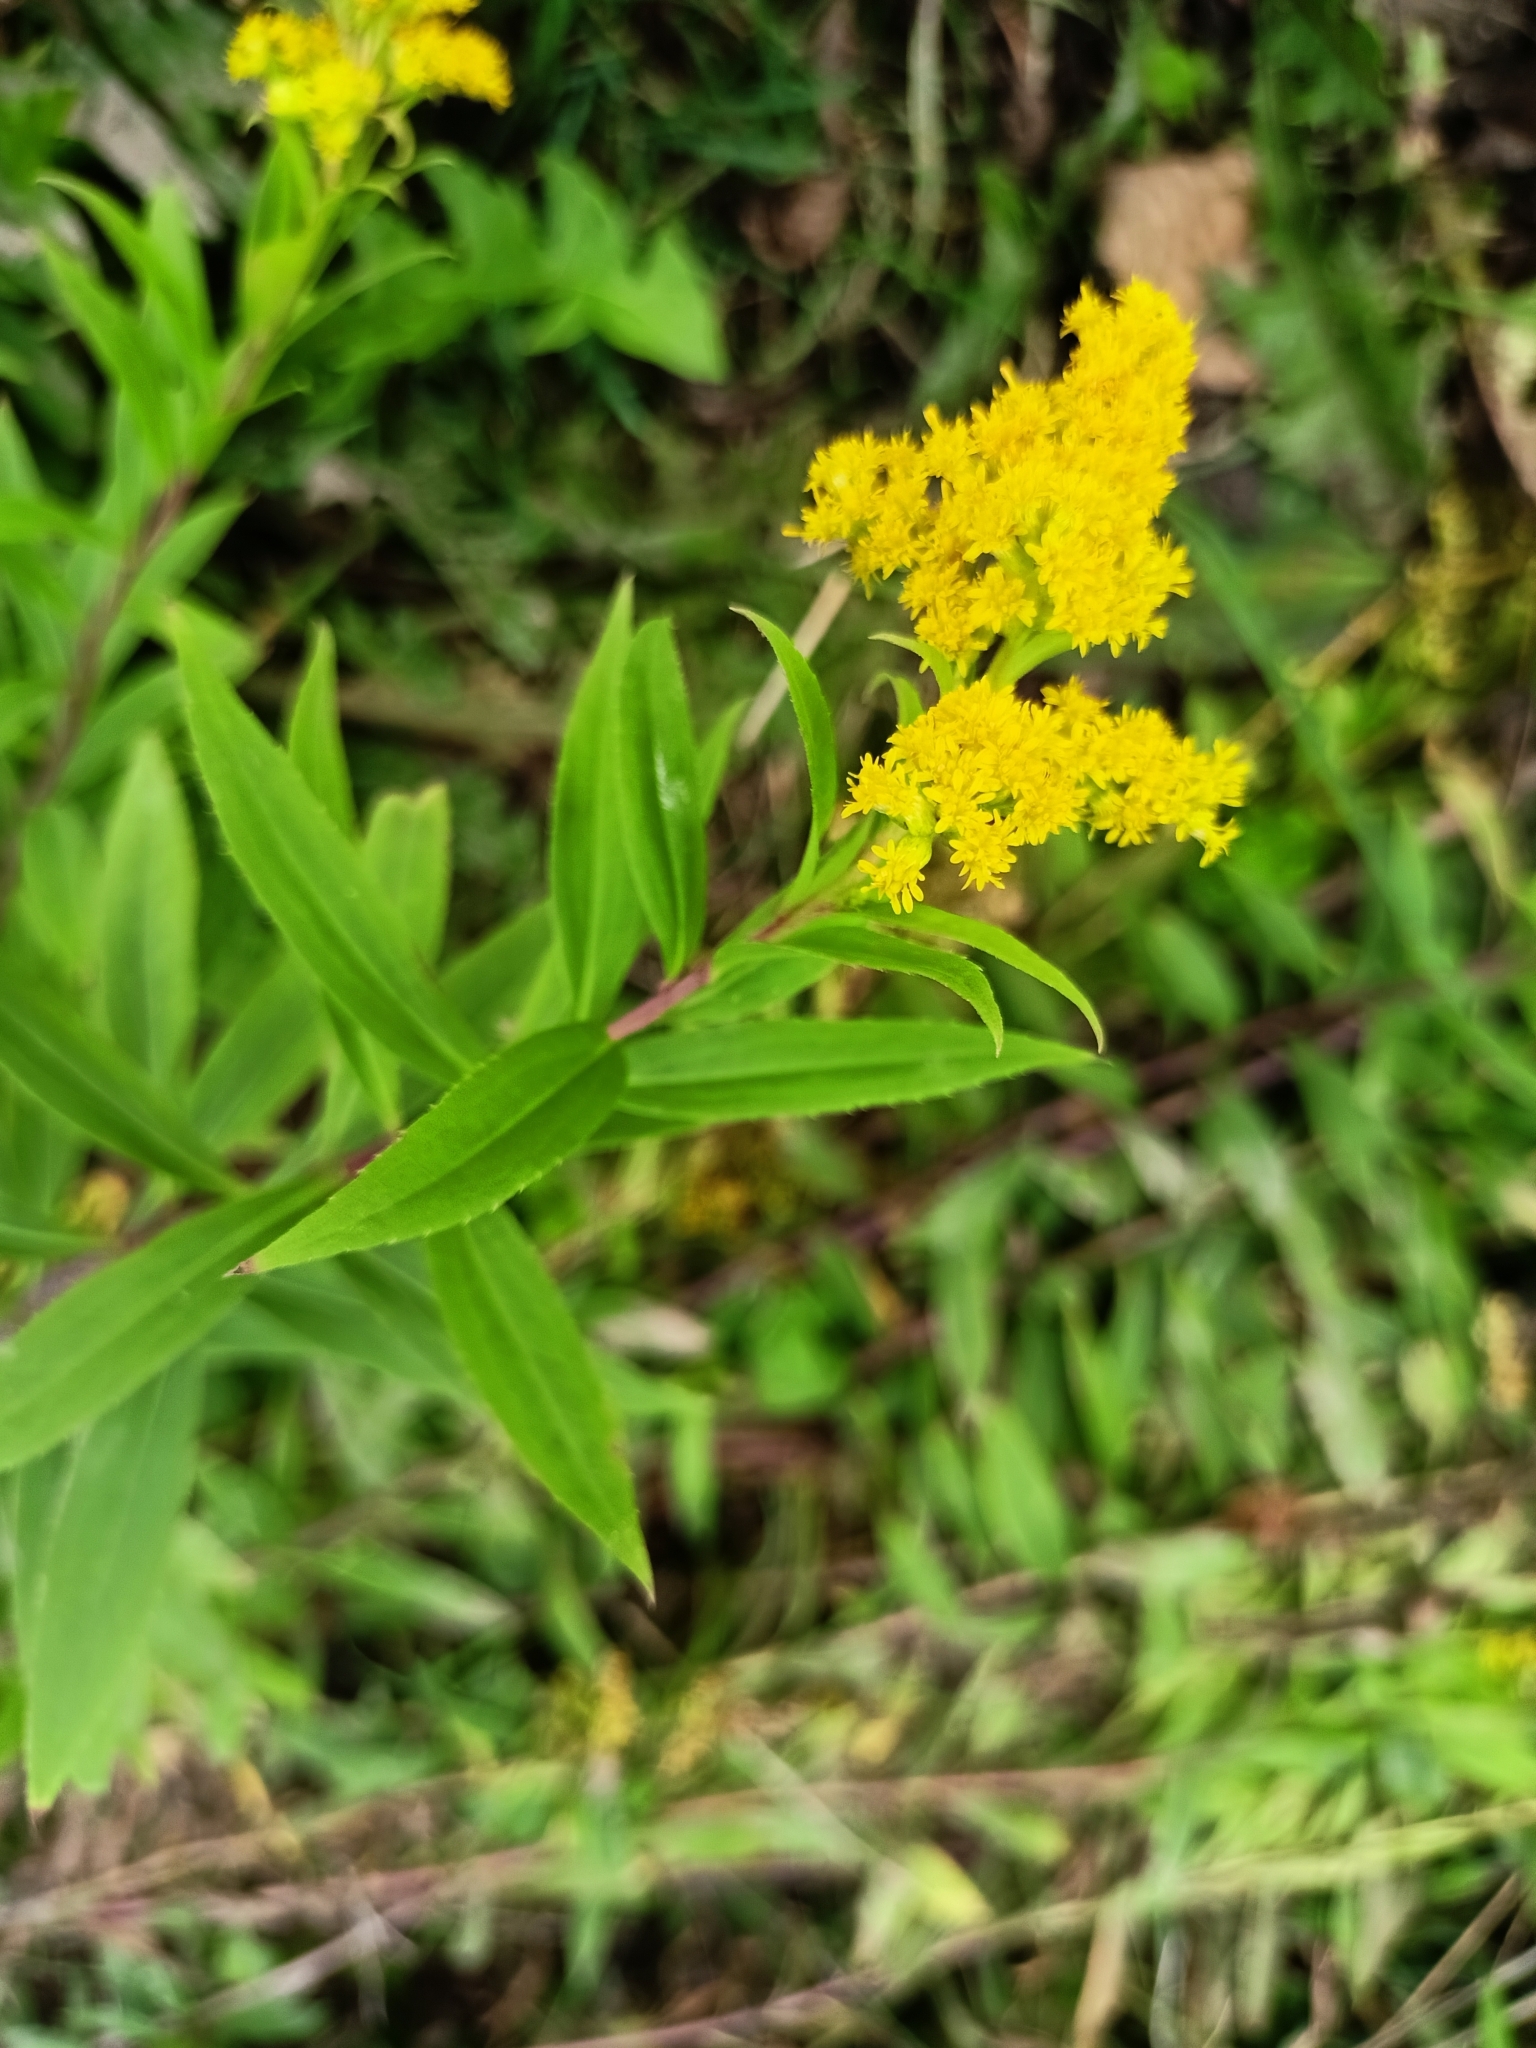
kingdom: Plantae
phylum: Tracheophyta
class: Magnoliopsida
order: Asterales
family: Asteraceae
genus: Solidago
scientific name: Solidago gigantea
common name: Giant goldenrod
